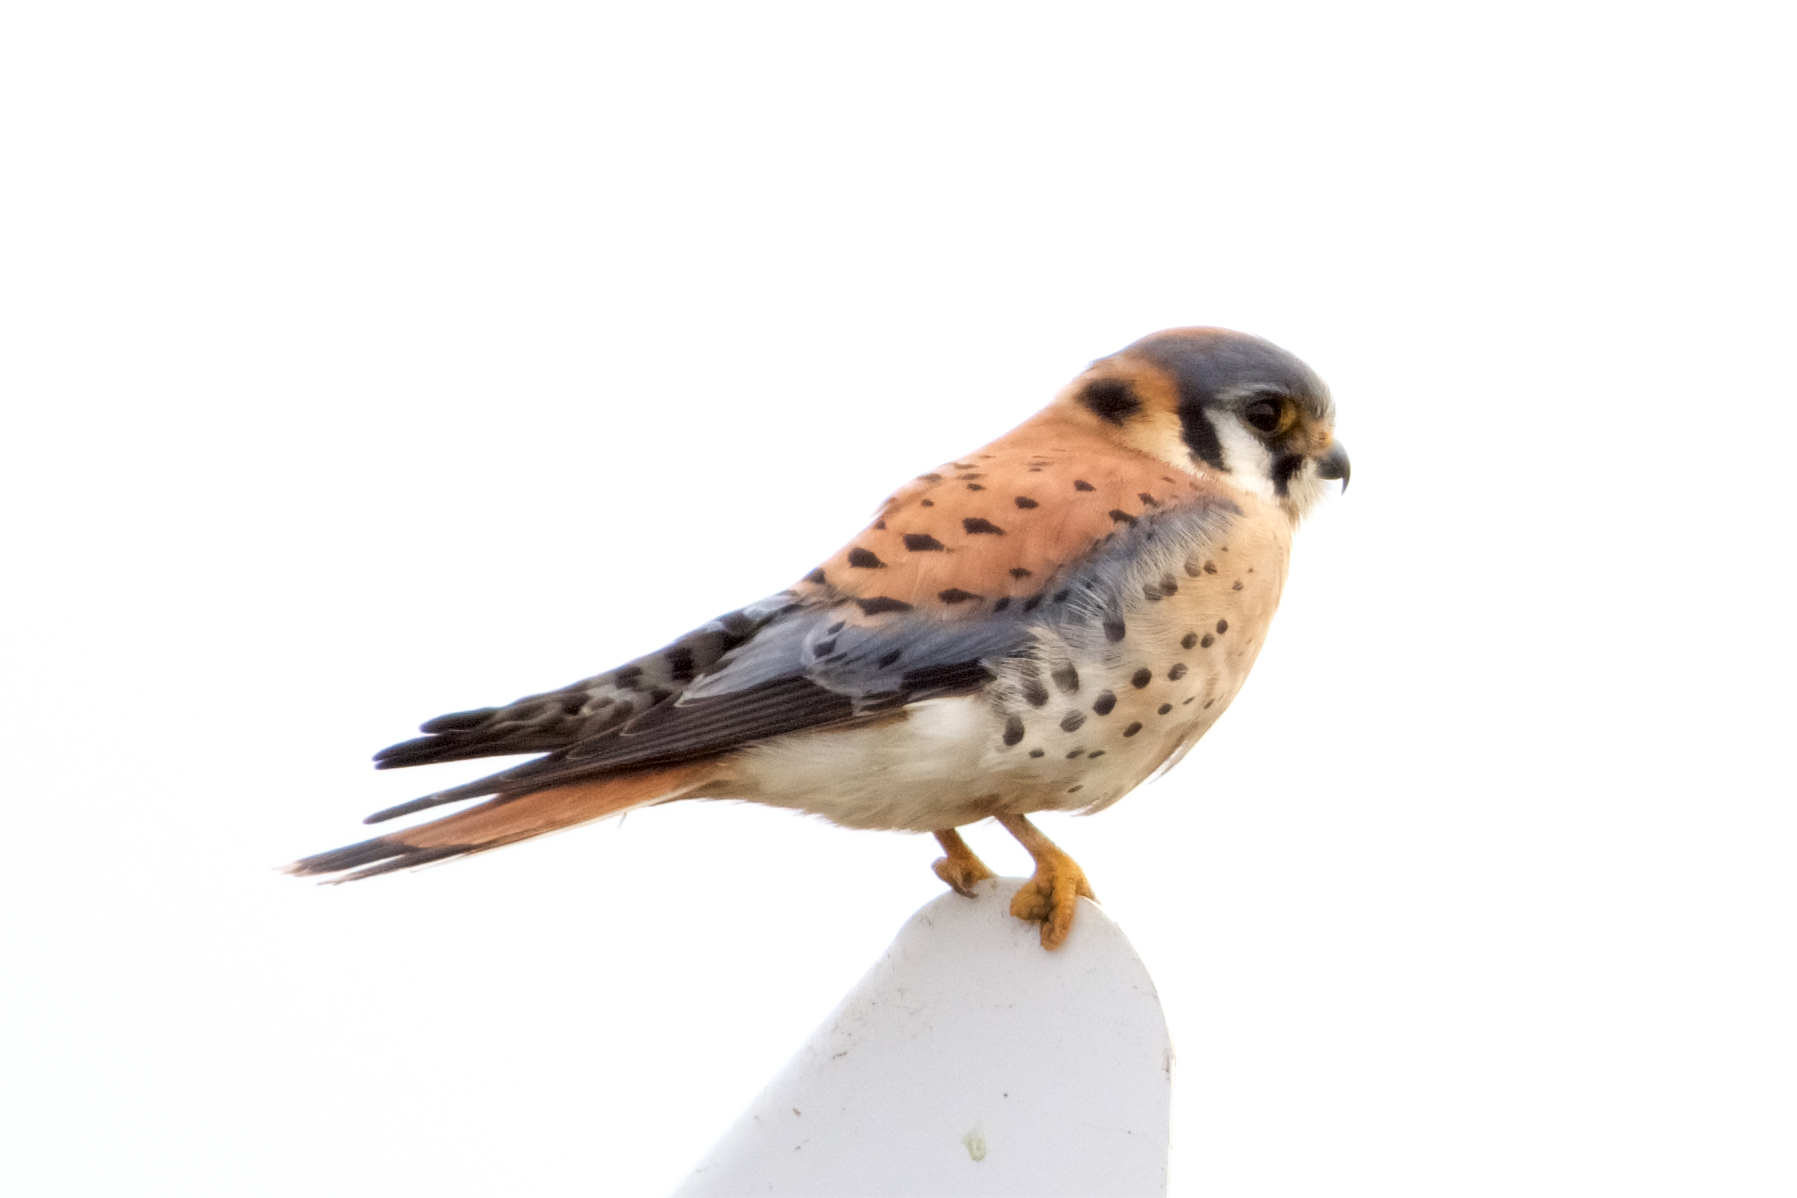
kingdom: Animalia
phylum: Chordata
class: Aves
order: Falconiformes
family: Falconidae
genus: Falco
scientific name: Falco sparverius
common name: American kestrel
